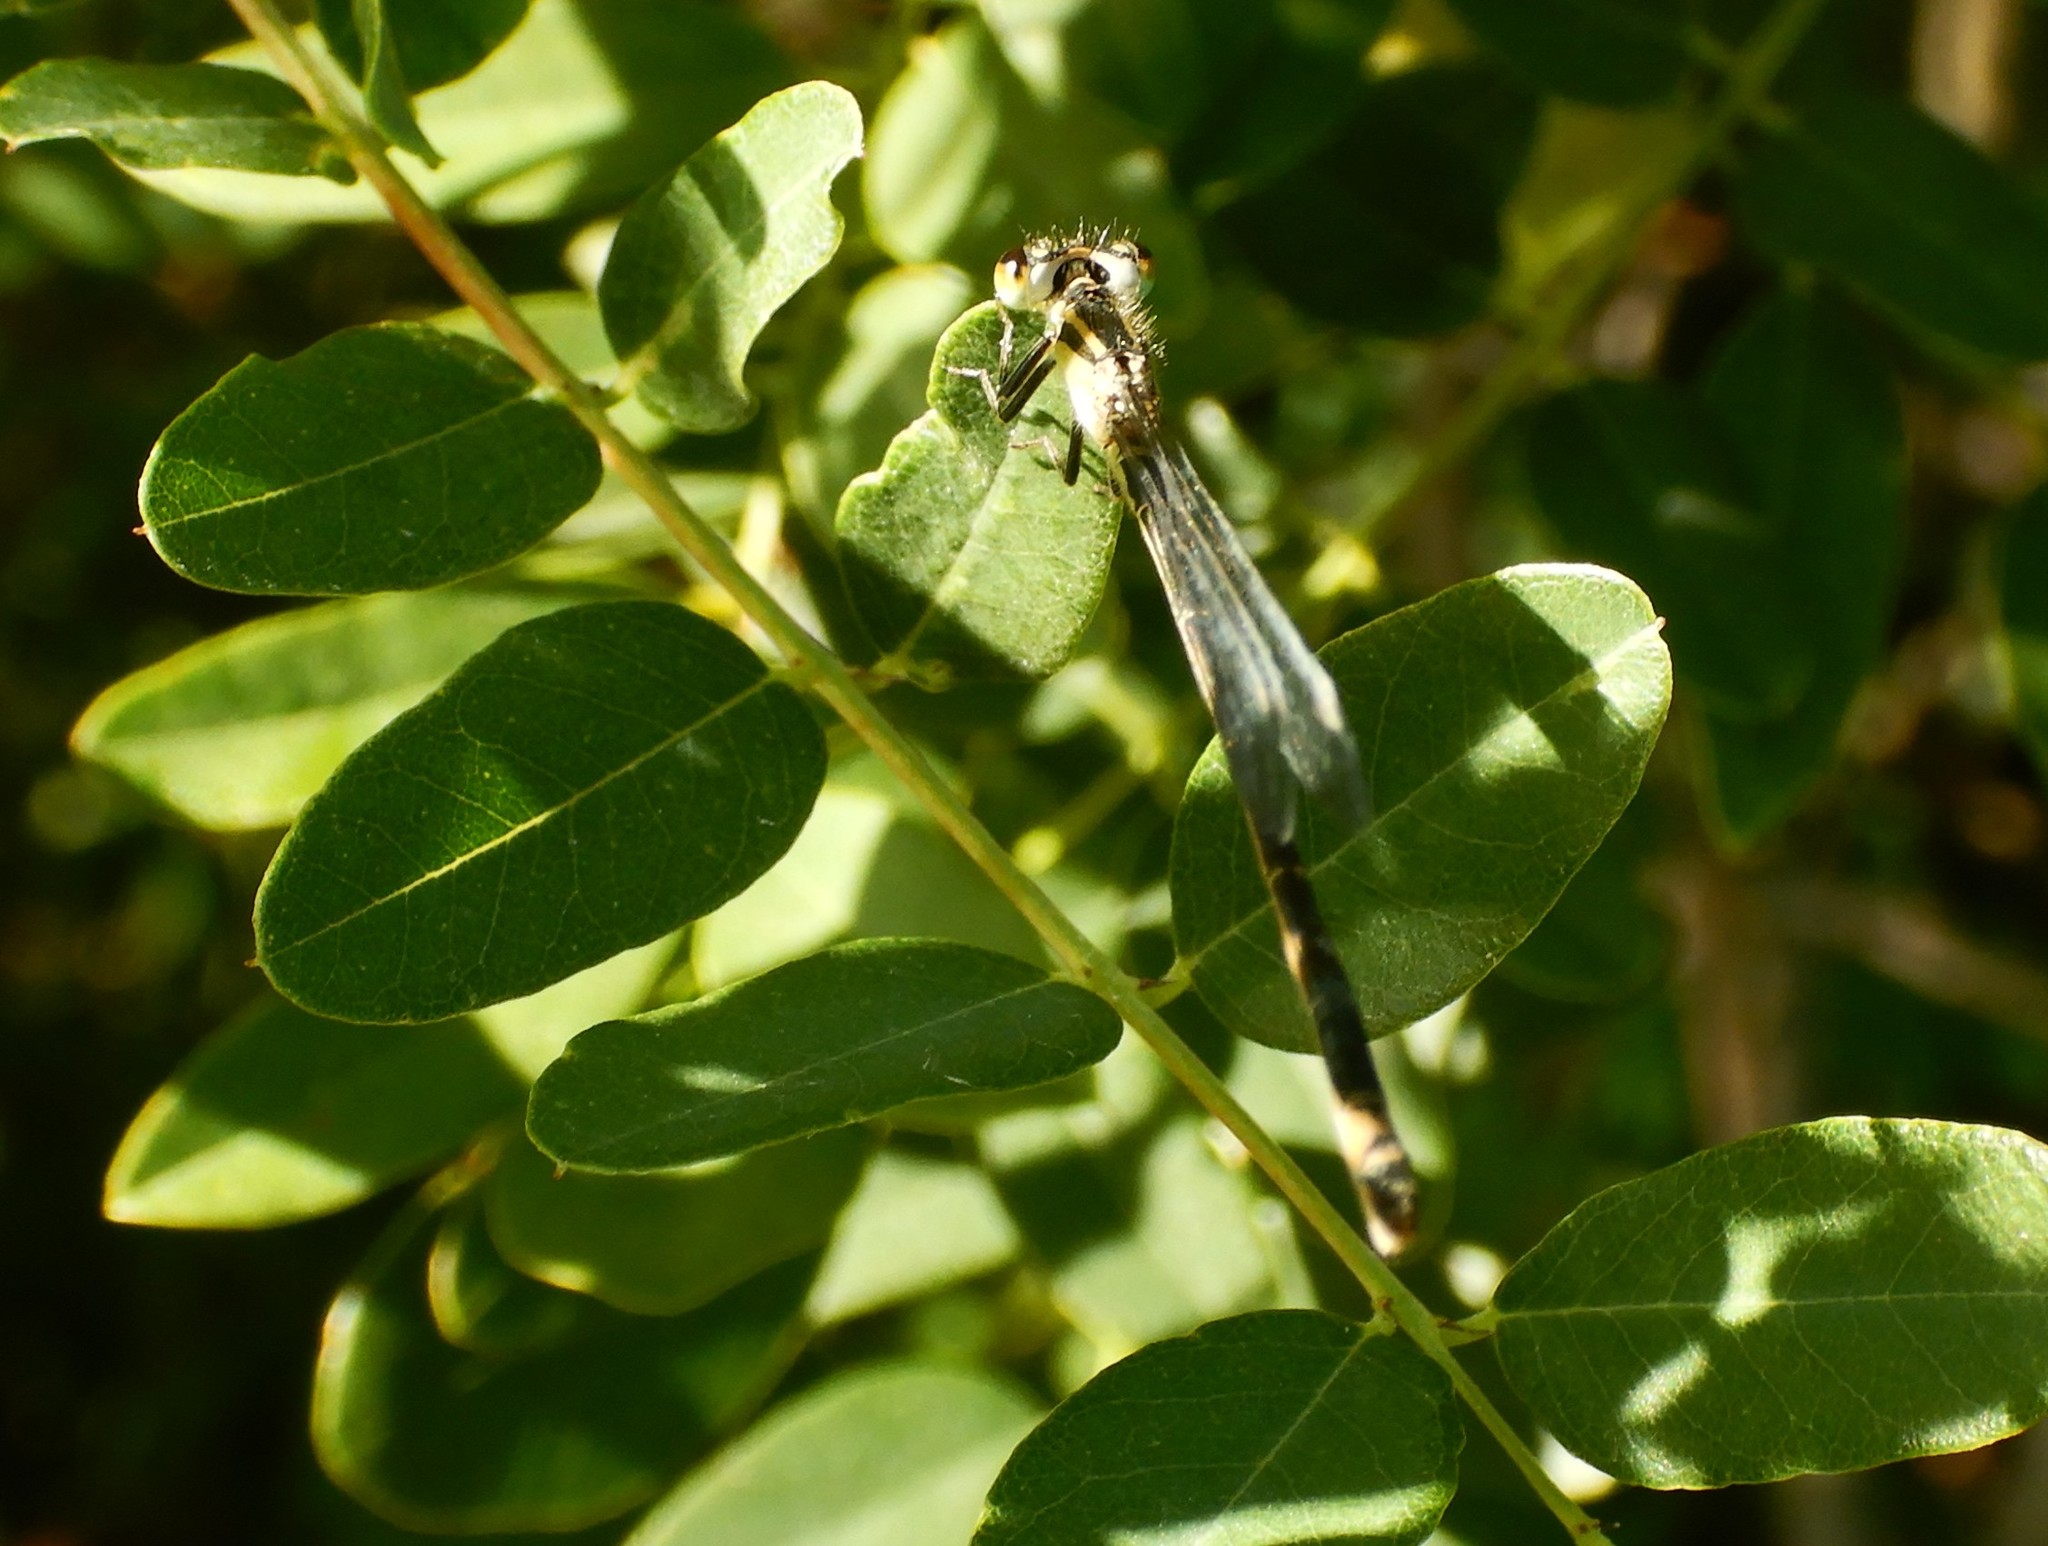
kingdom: Animalia
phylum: Arthropoda
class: Insecta
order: Odonata
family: Coenagrionidae
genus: Ischnura
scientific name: Ischnura elegans
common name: Blue-tailed damselfly
